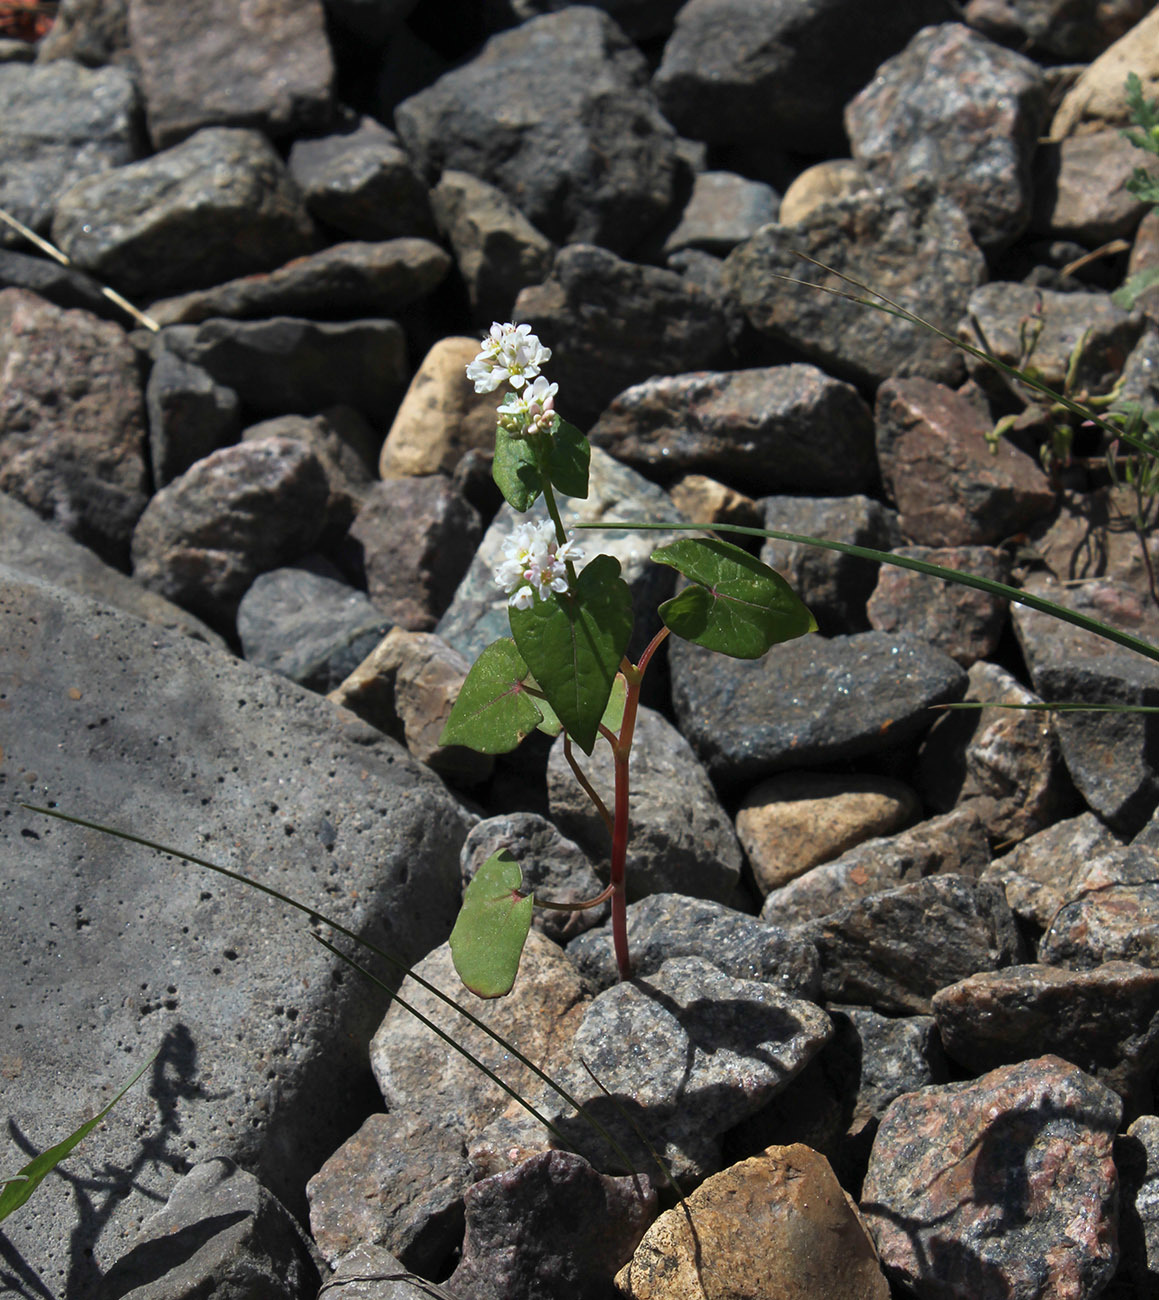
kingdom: Plantae
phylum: Tracheophyta
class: Magnoliopsida
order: Caryophyllales
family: Polygonaceae
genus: Fagopyrum
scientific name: Fagopyrum esculentum
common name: Buckwheat
